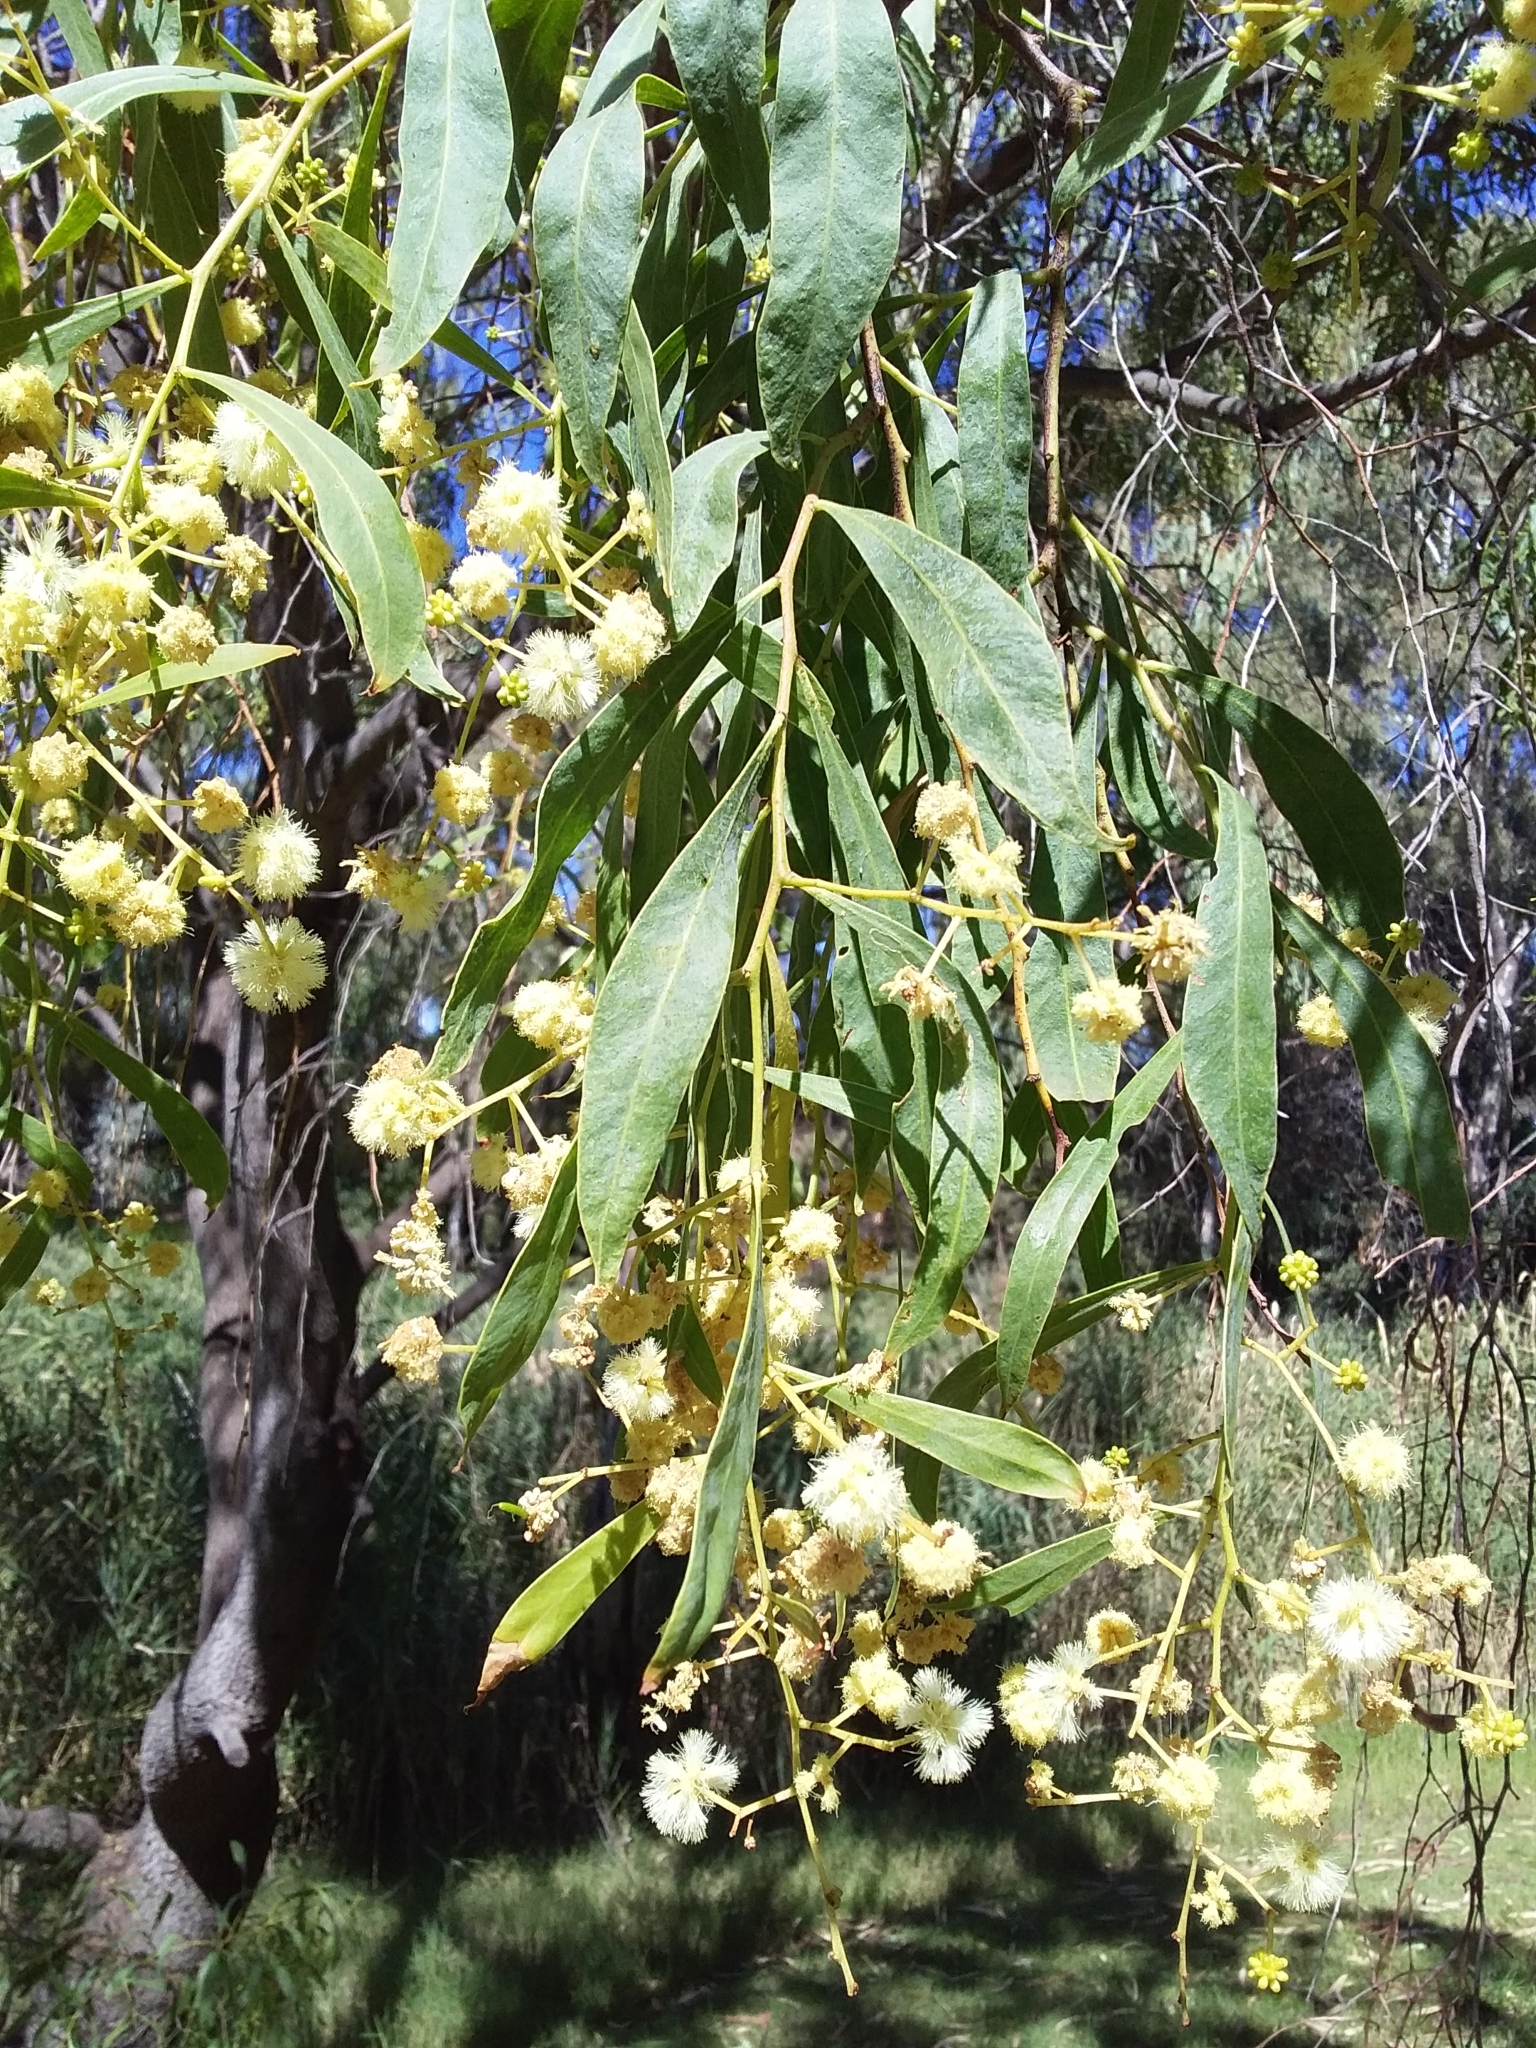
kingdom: Plantae
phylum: Tracheophyta
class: Magnoliopsida
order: Fabales
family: Fabaceae
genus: Acacia
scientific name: Acacia salicina
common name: Broughton willow wattle
